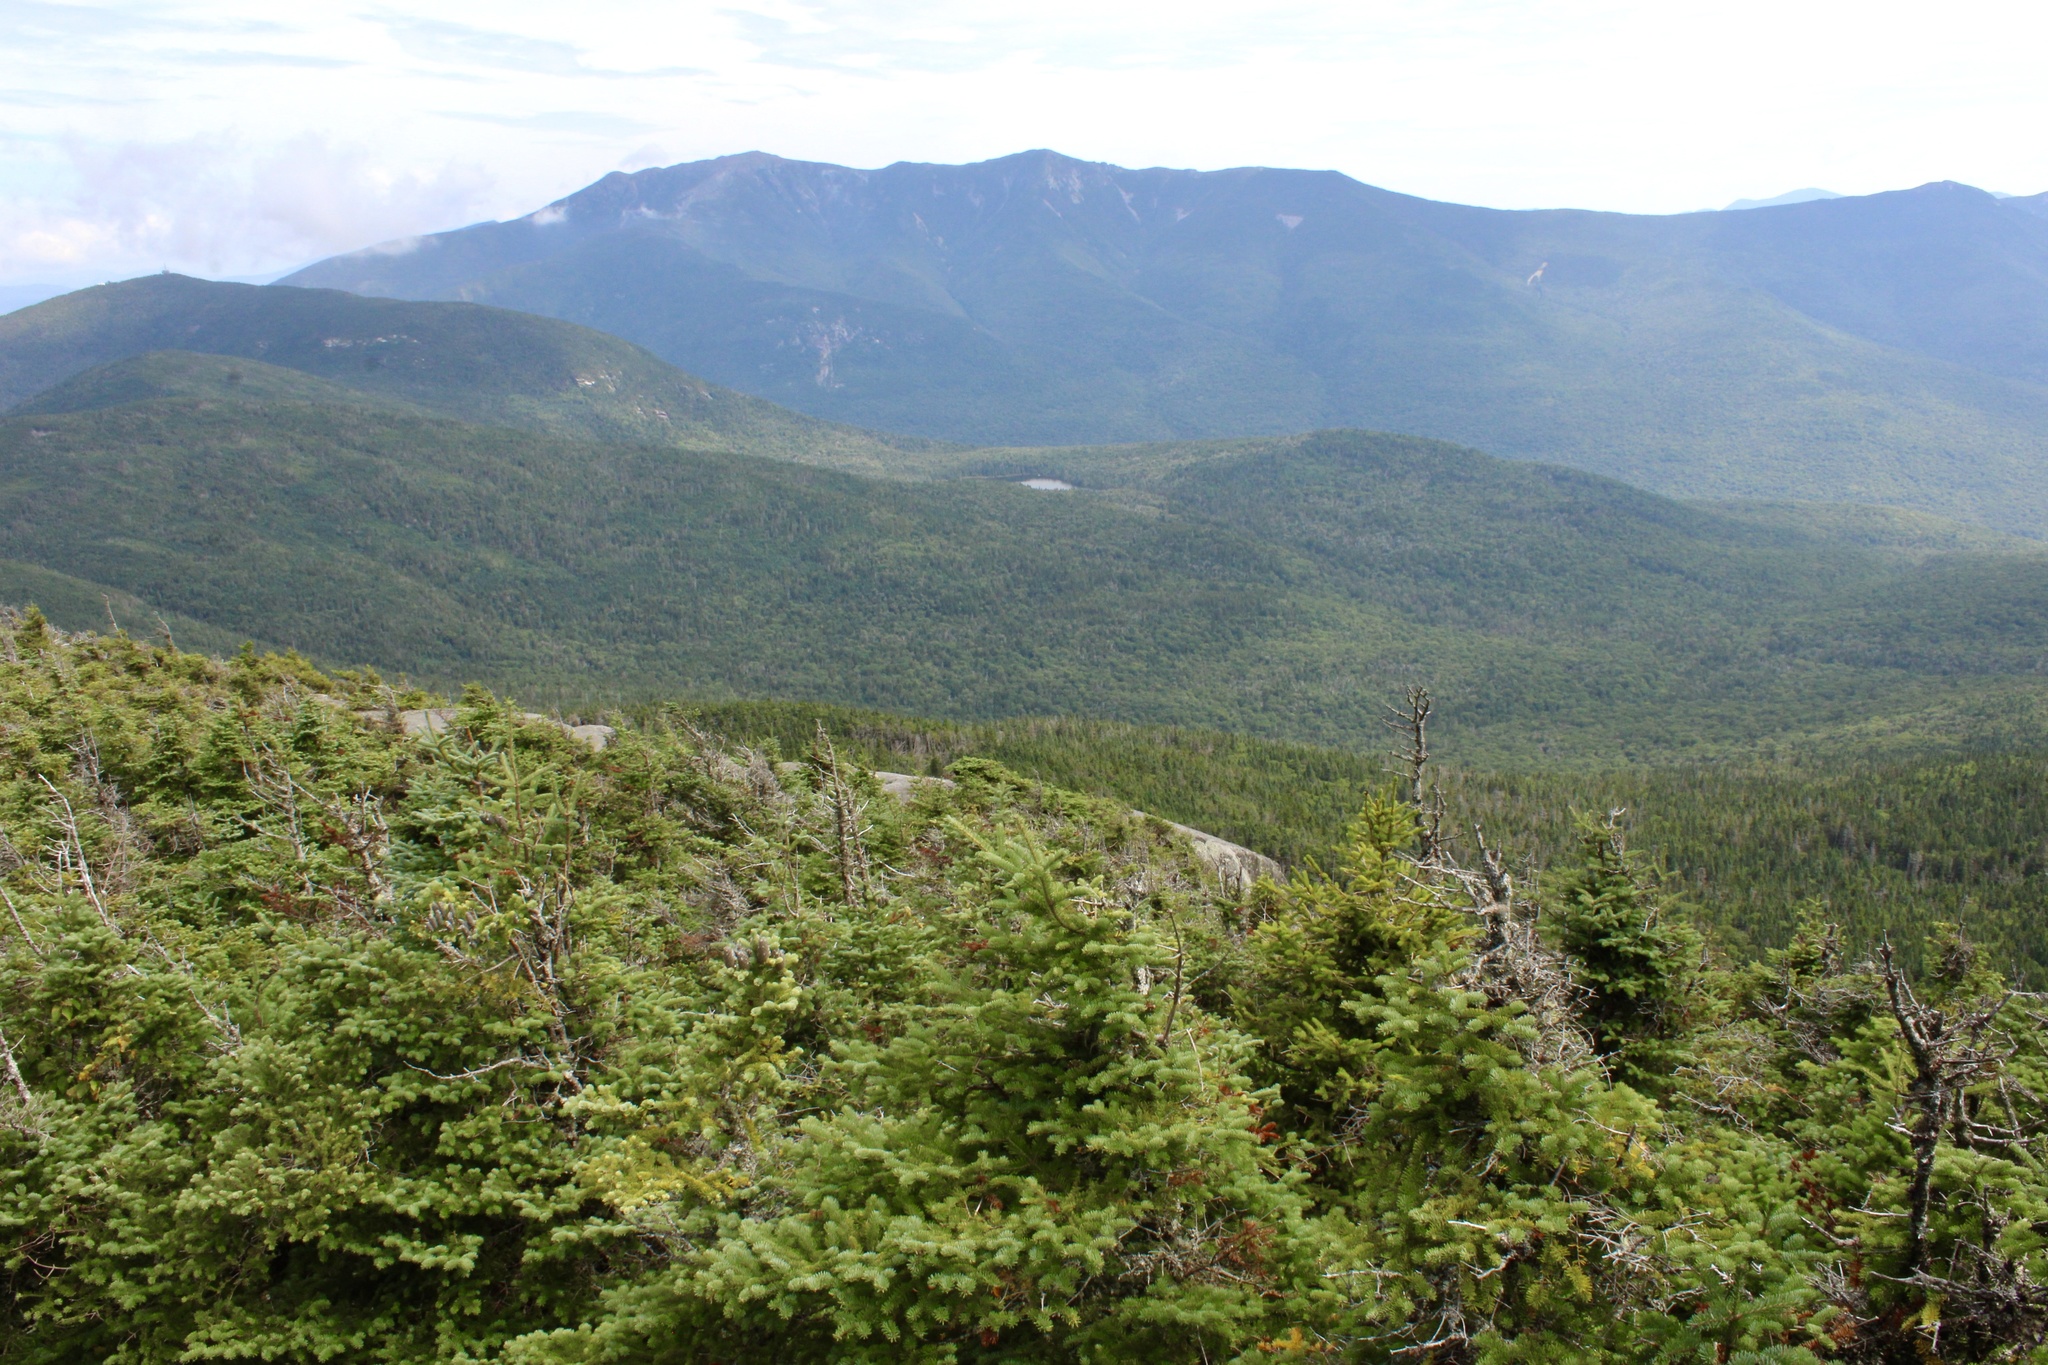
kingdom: Animalia
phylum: Arthropoda
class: Arachnida
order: Araneae
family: Araneidae
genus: Araneus
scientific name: Araneus nordmanni
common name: Nordmann's orbweaver
